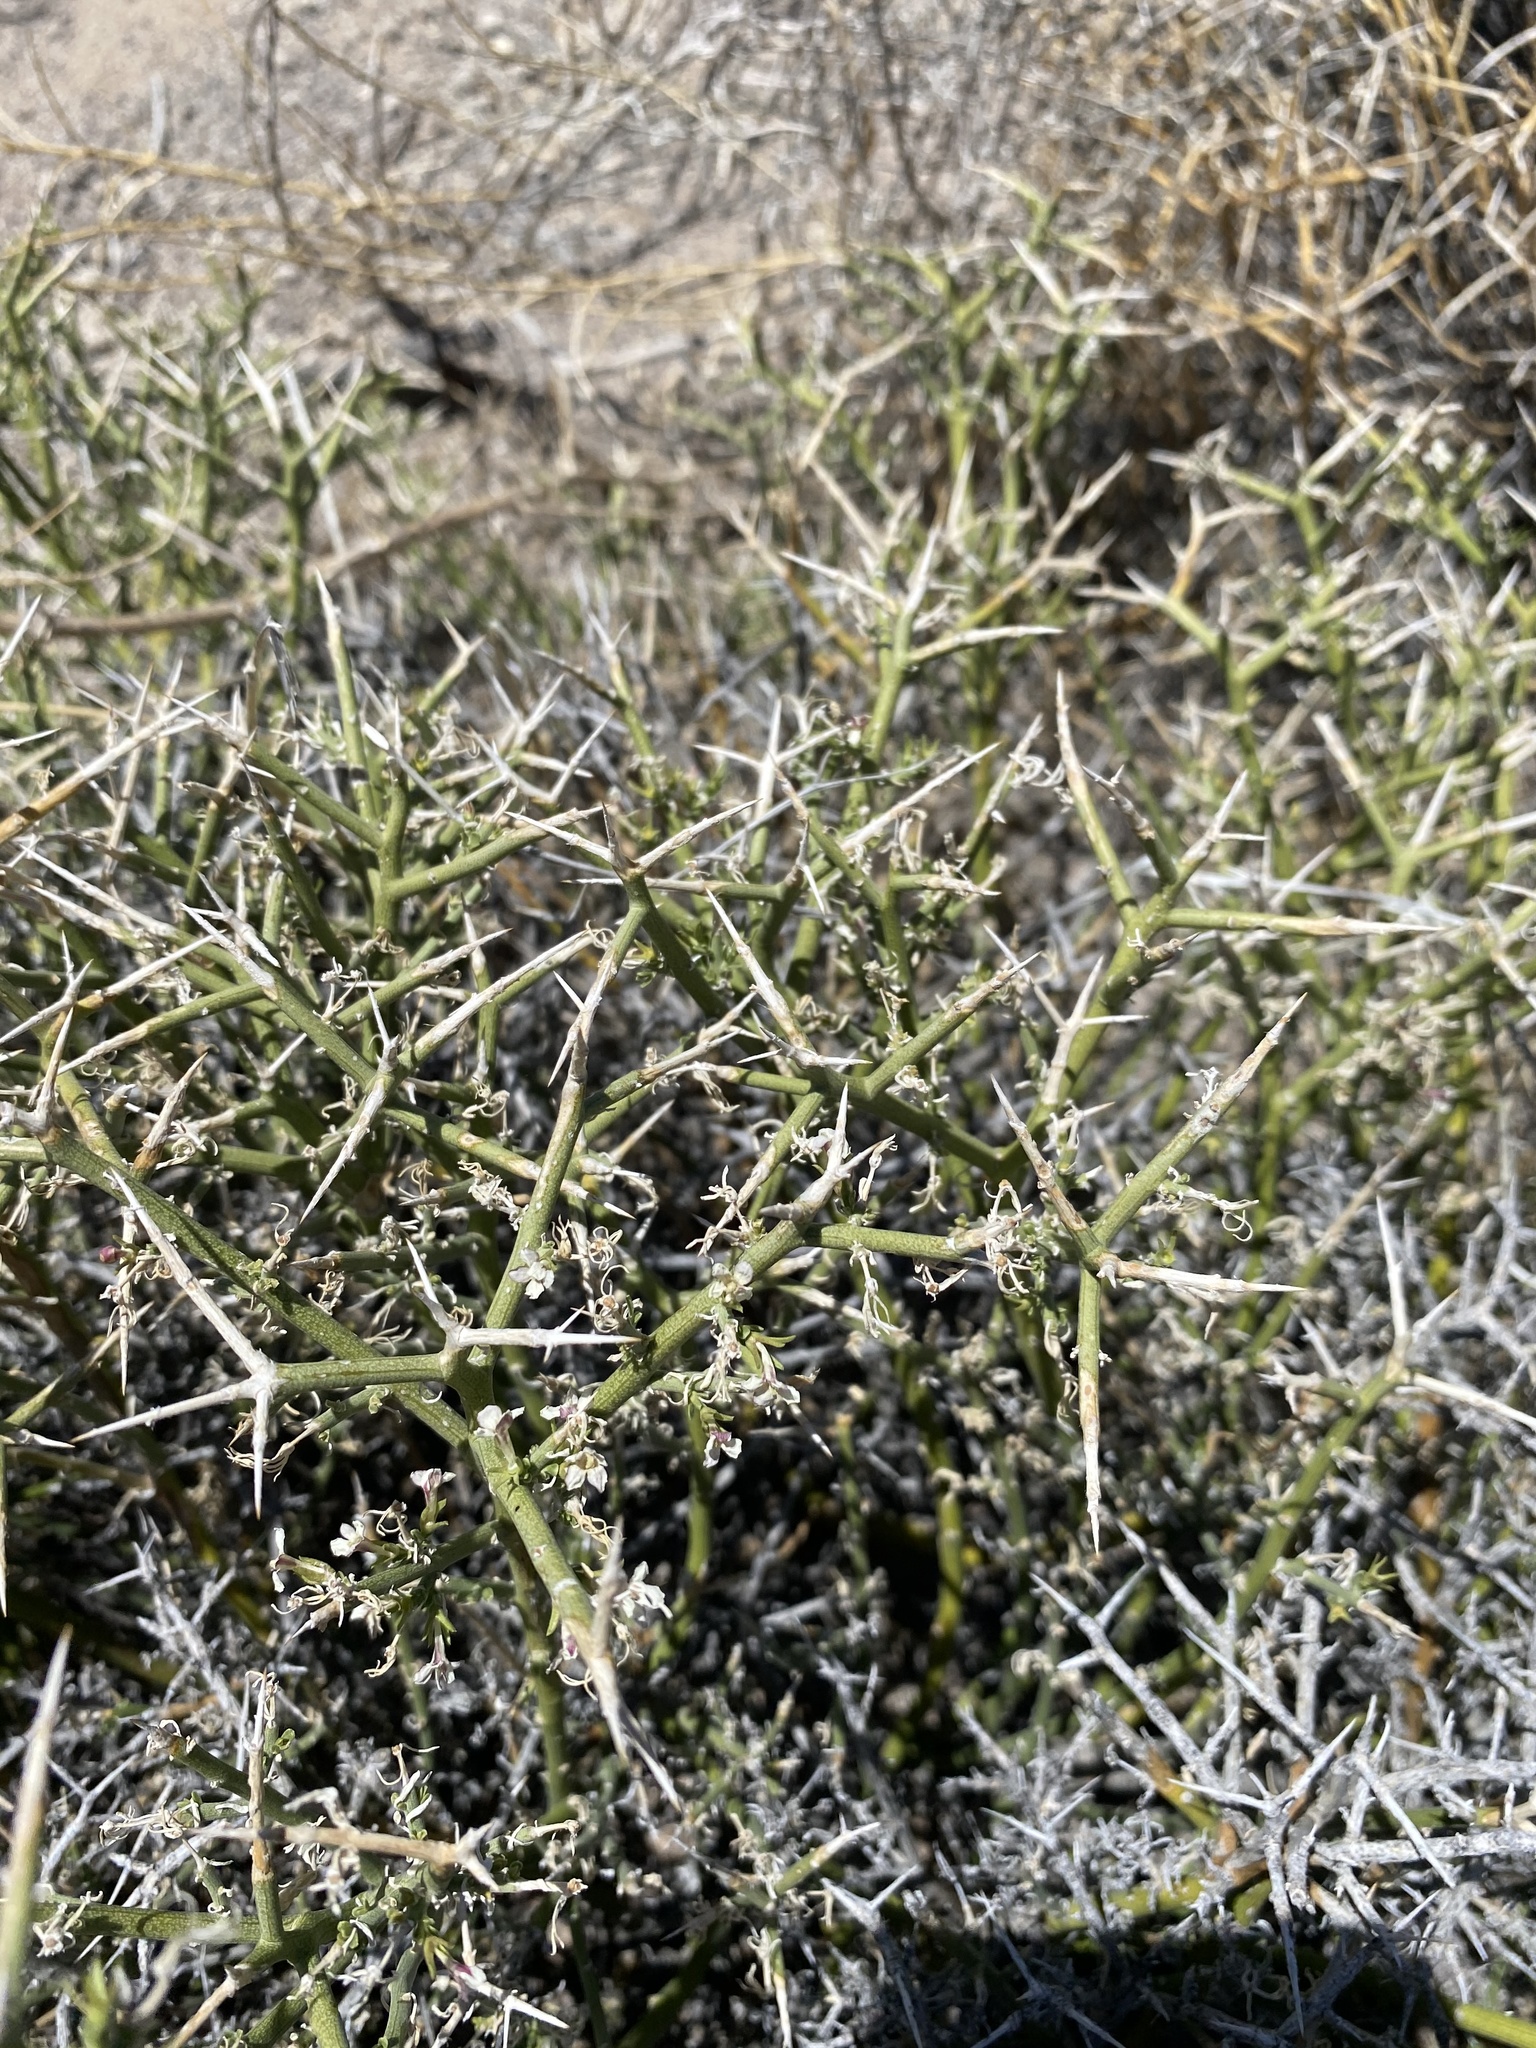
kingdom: Plantae
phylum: Tracheophyta
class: Magnoliopsida
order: Lamiales
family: Oleaceae
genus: Menodora
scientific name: Menodora spinescens
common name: Spiny menodora
